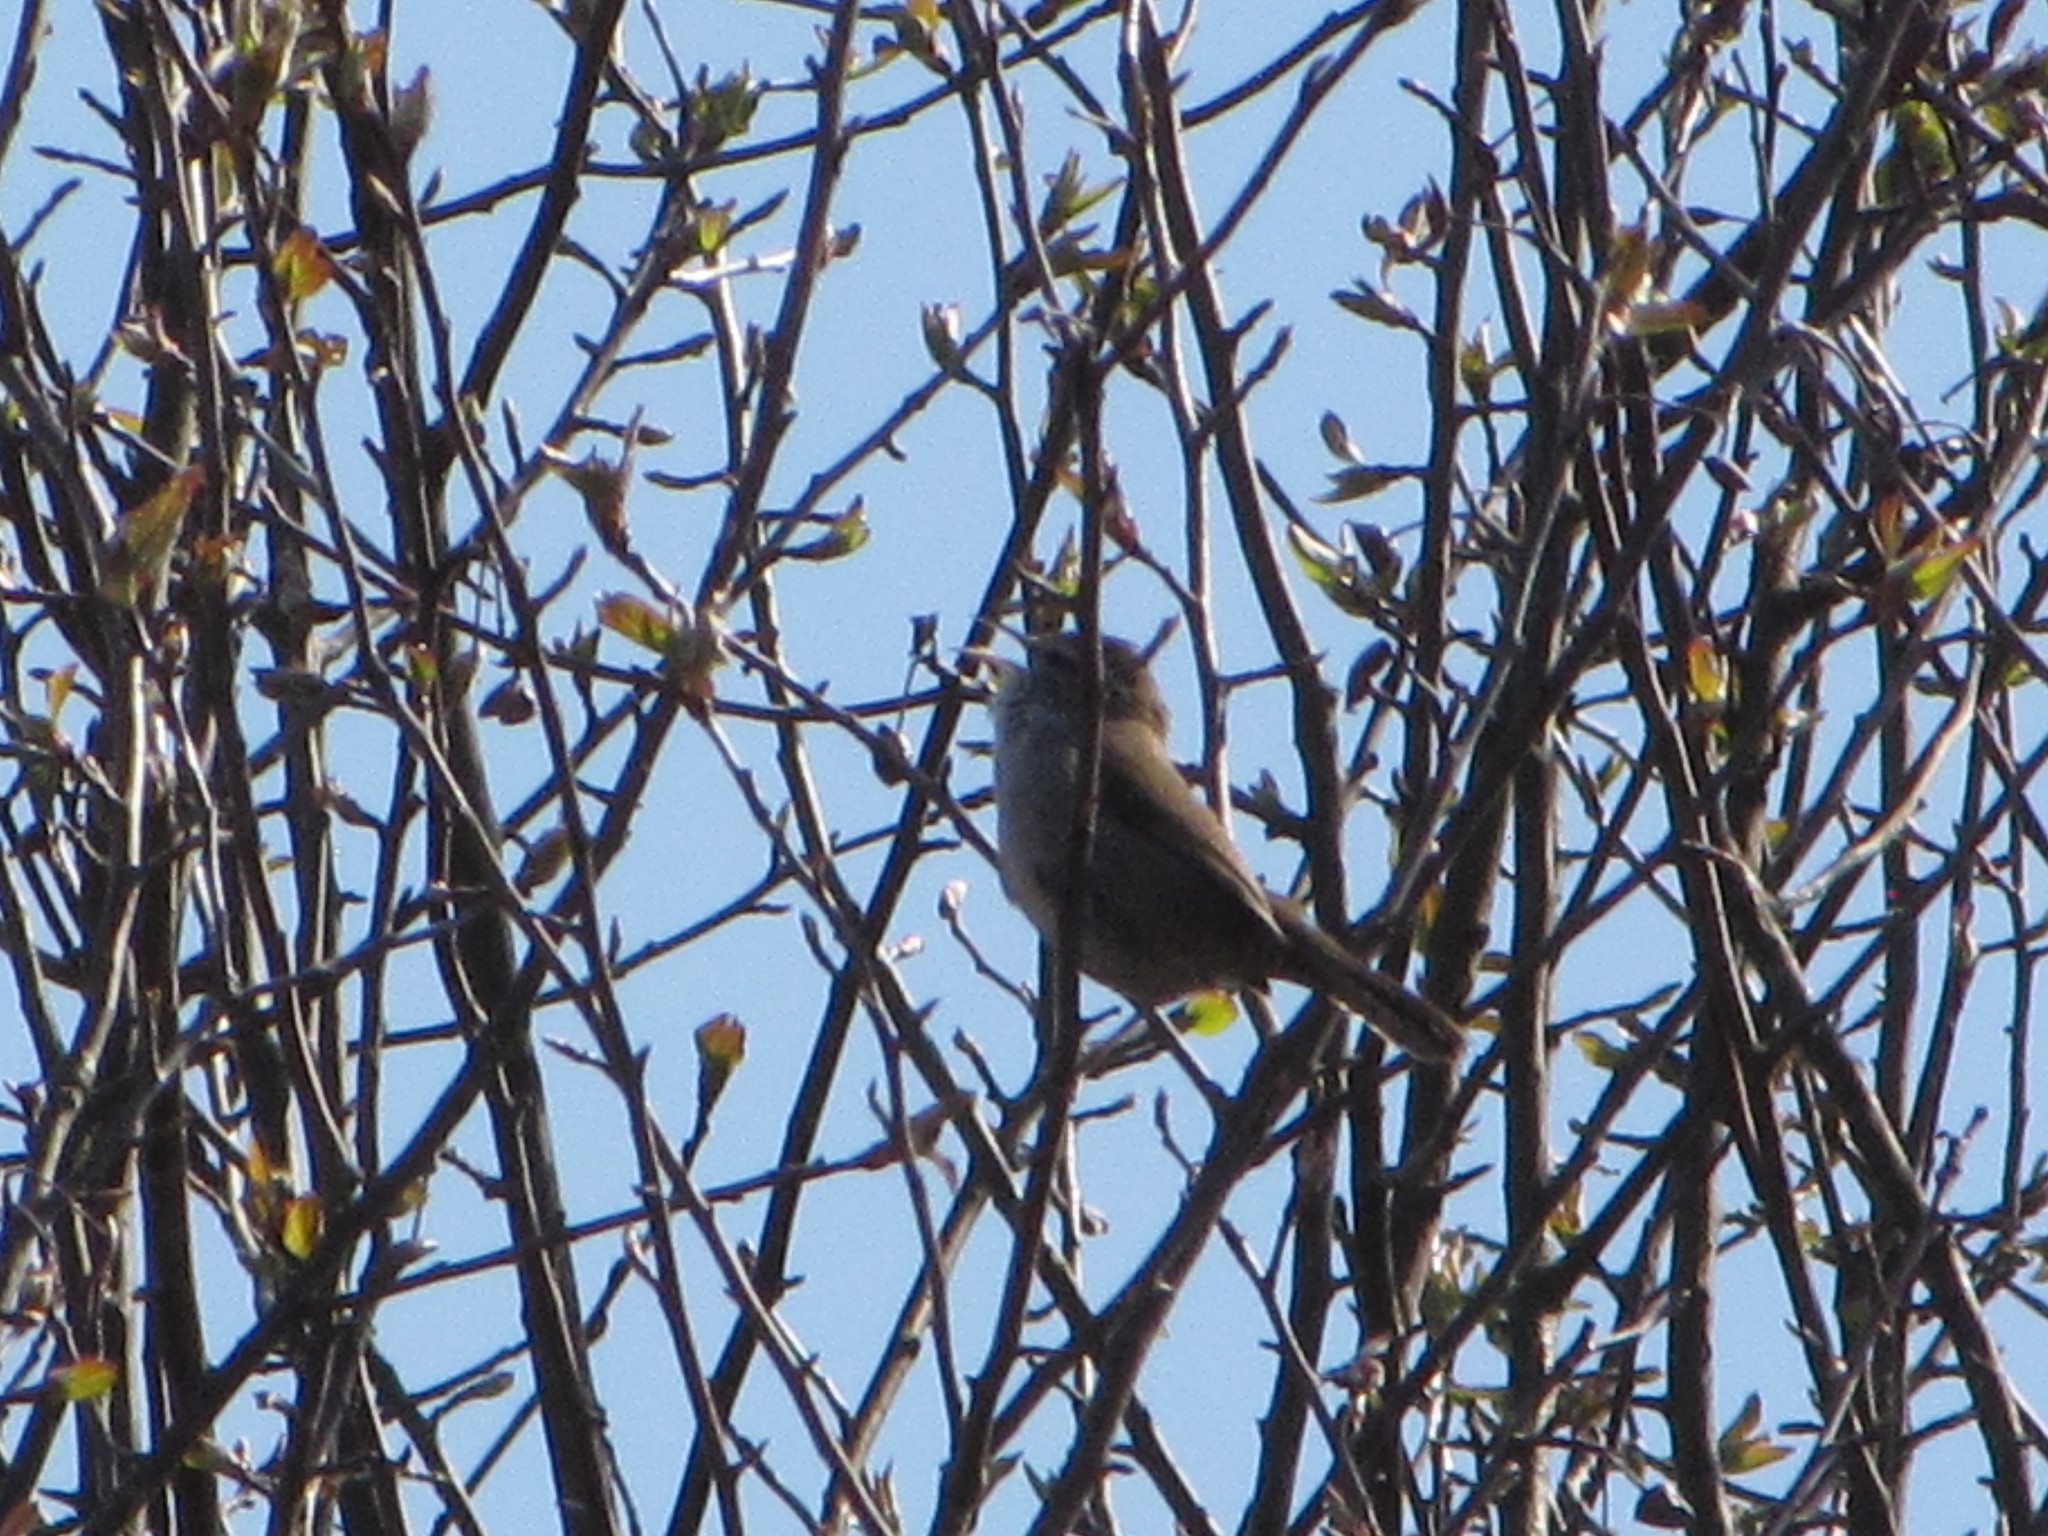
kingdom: Animalia
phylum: Chordata
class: Aves
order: Passeriformes
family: Troglodytidae
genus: Thryomanes
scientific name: Thryomanes bewickii
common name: Bewick's wren
